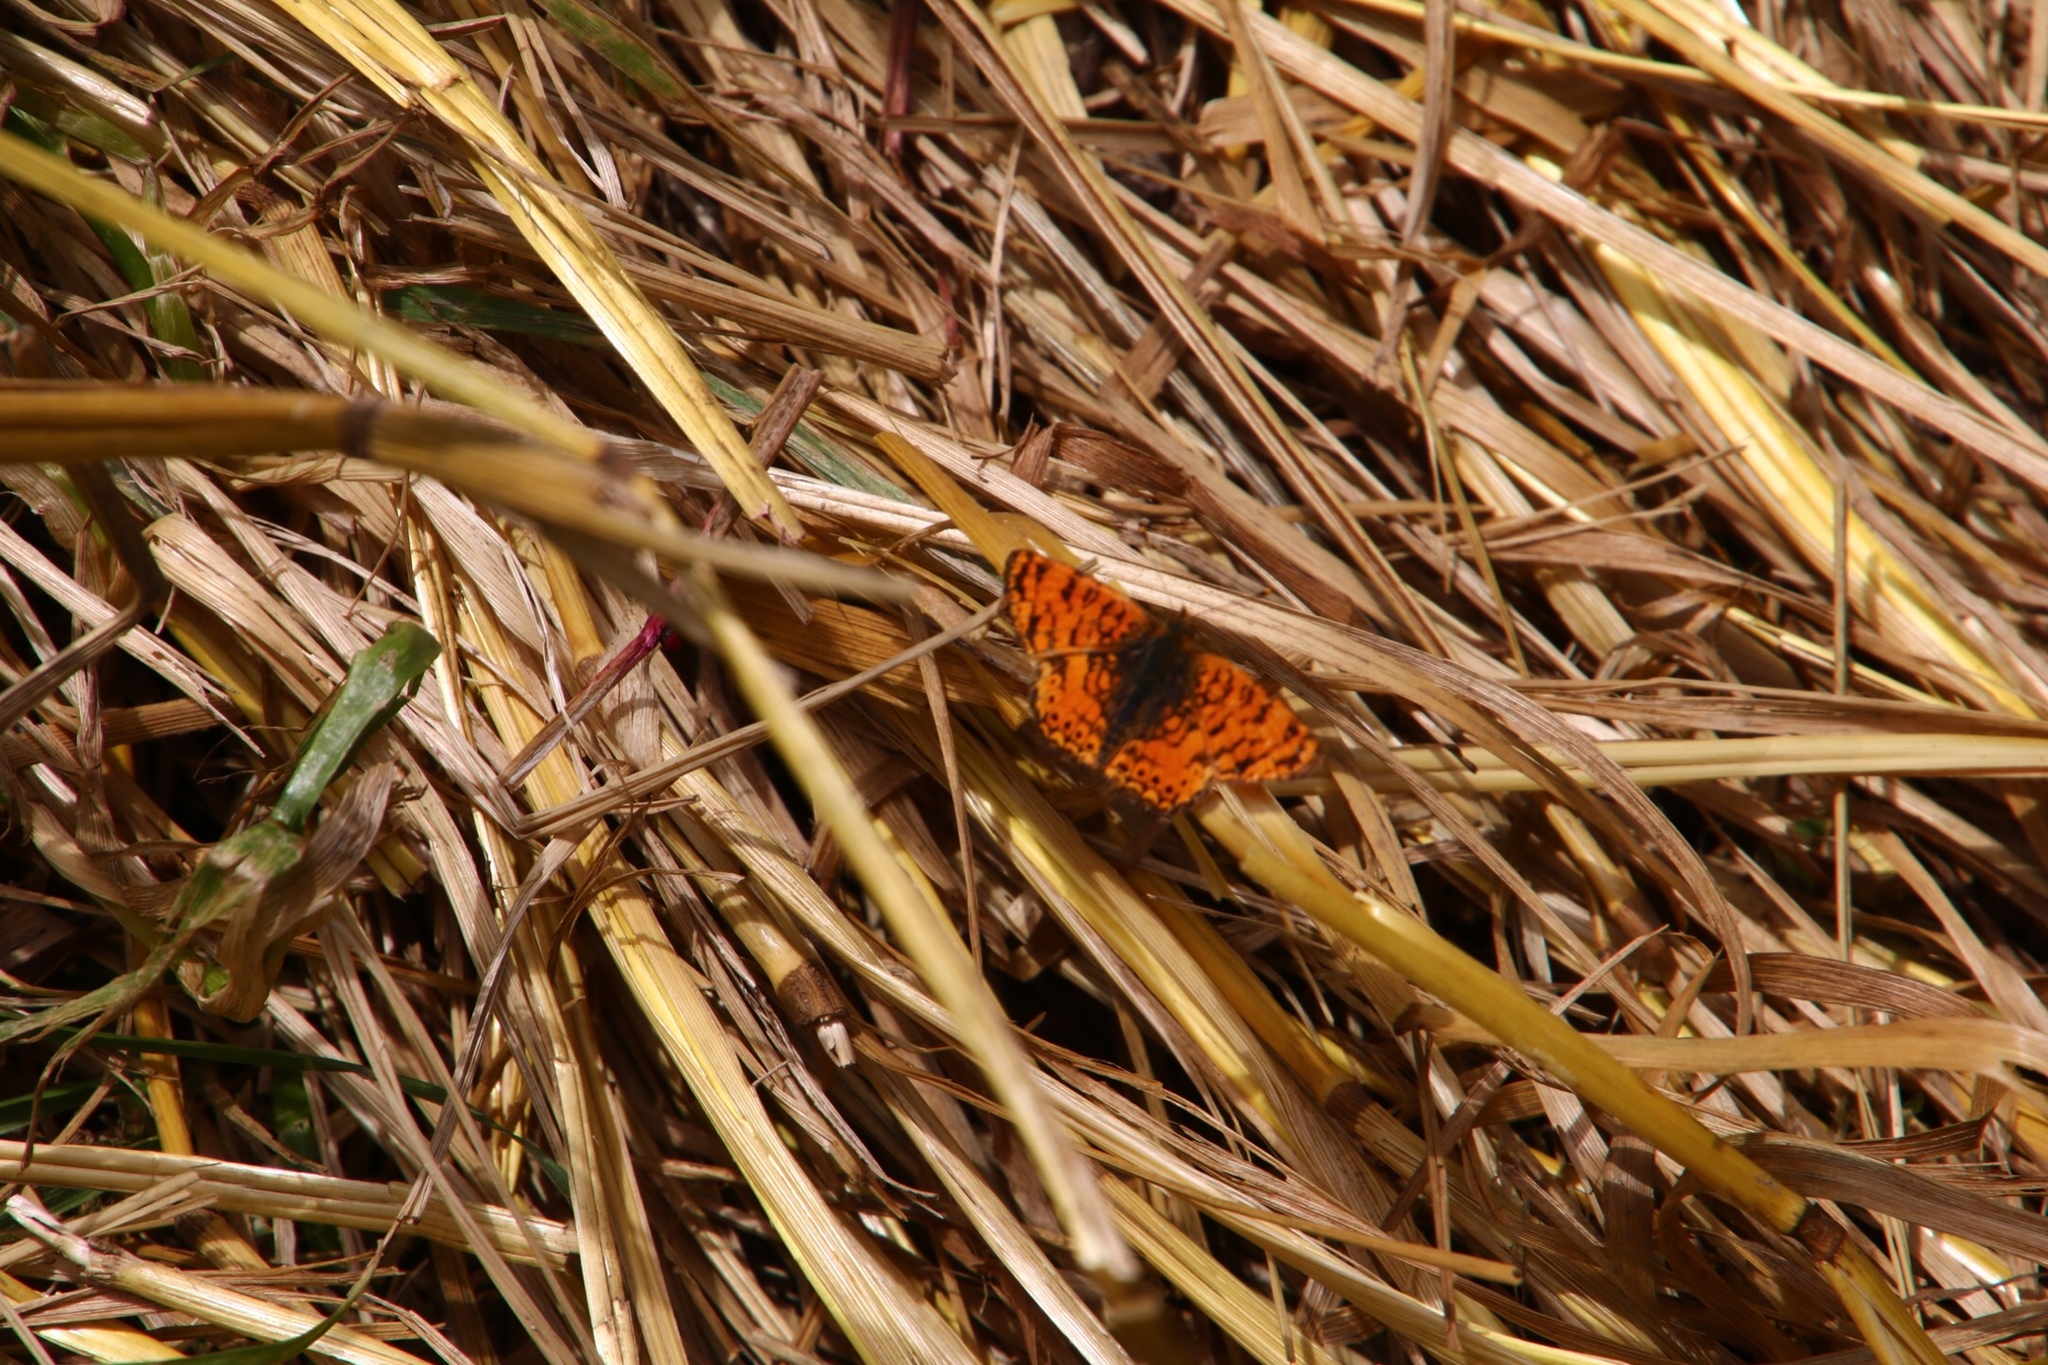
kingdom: Animalia
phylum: Arthropoda
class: Insecta
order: Lepidoptera
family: Nymphalidae
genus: Eresia
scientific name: Eresia aveyrona
